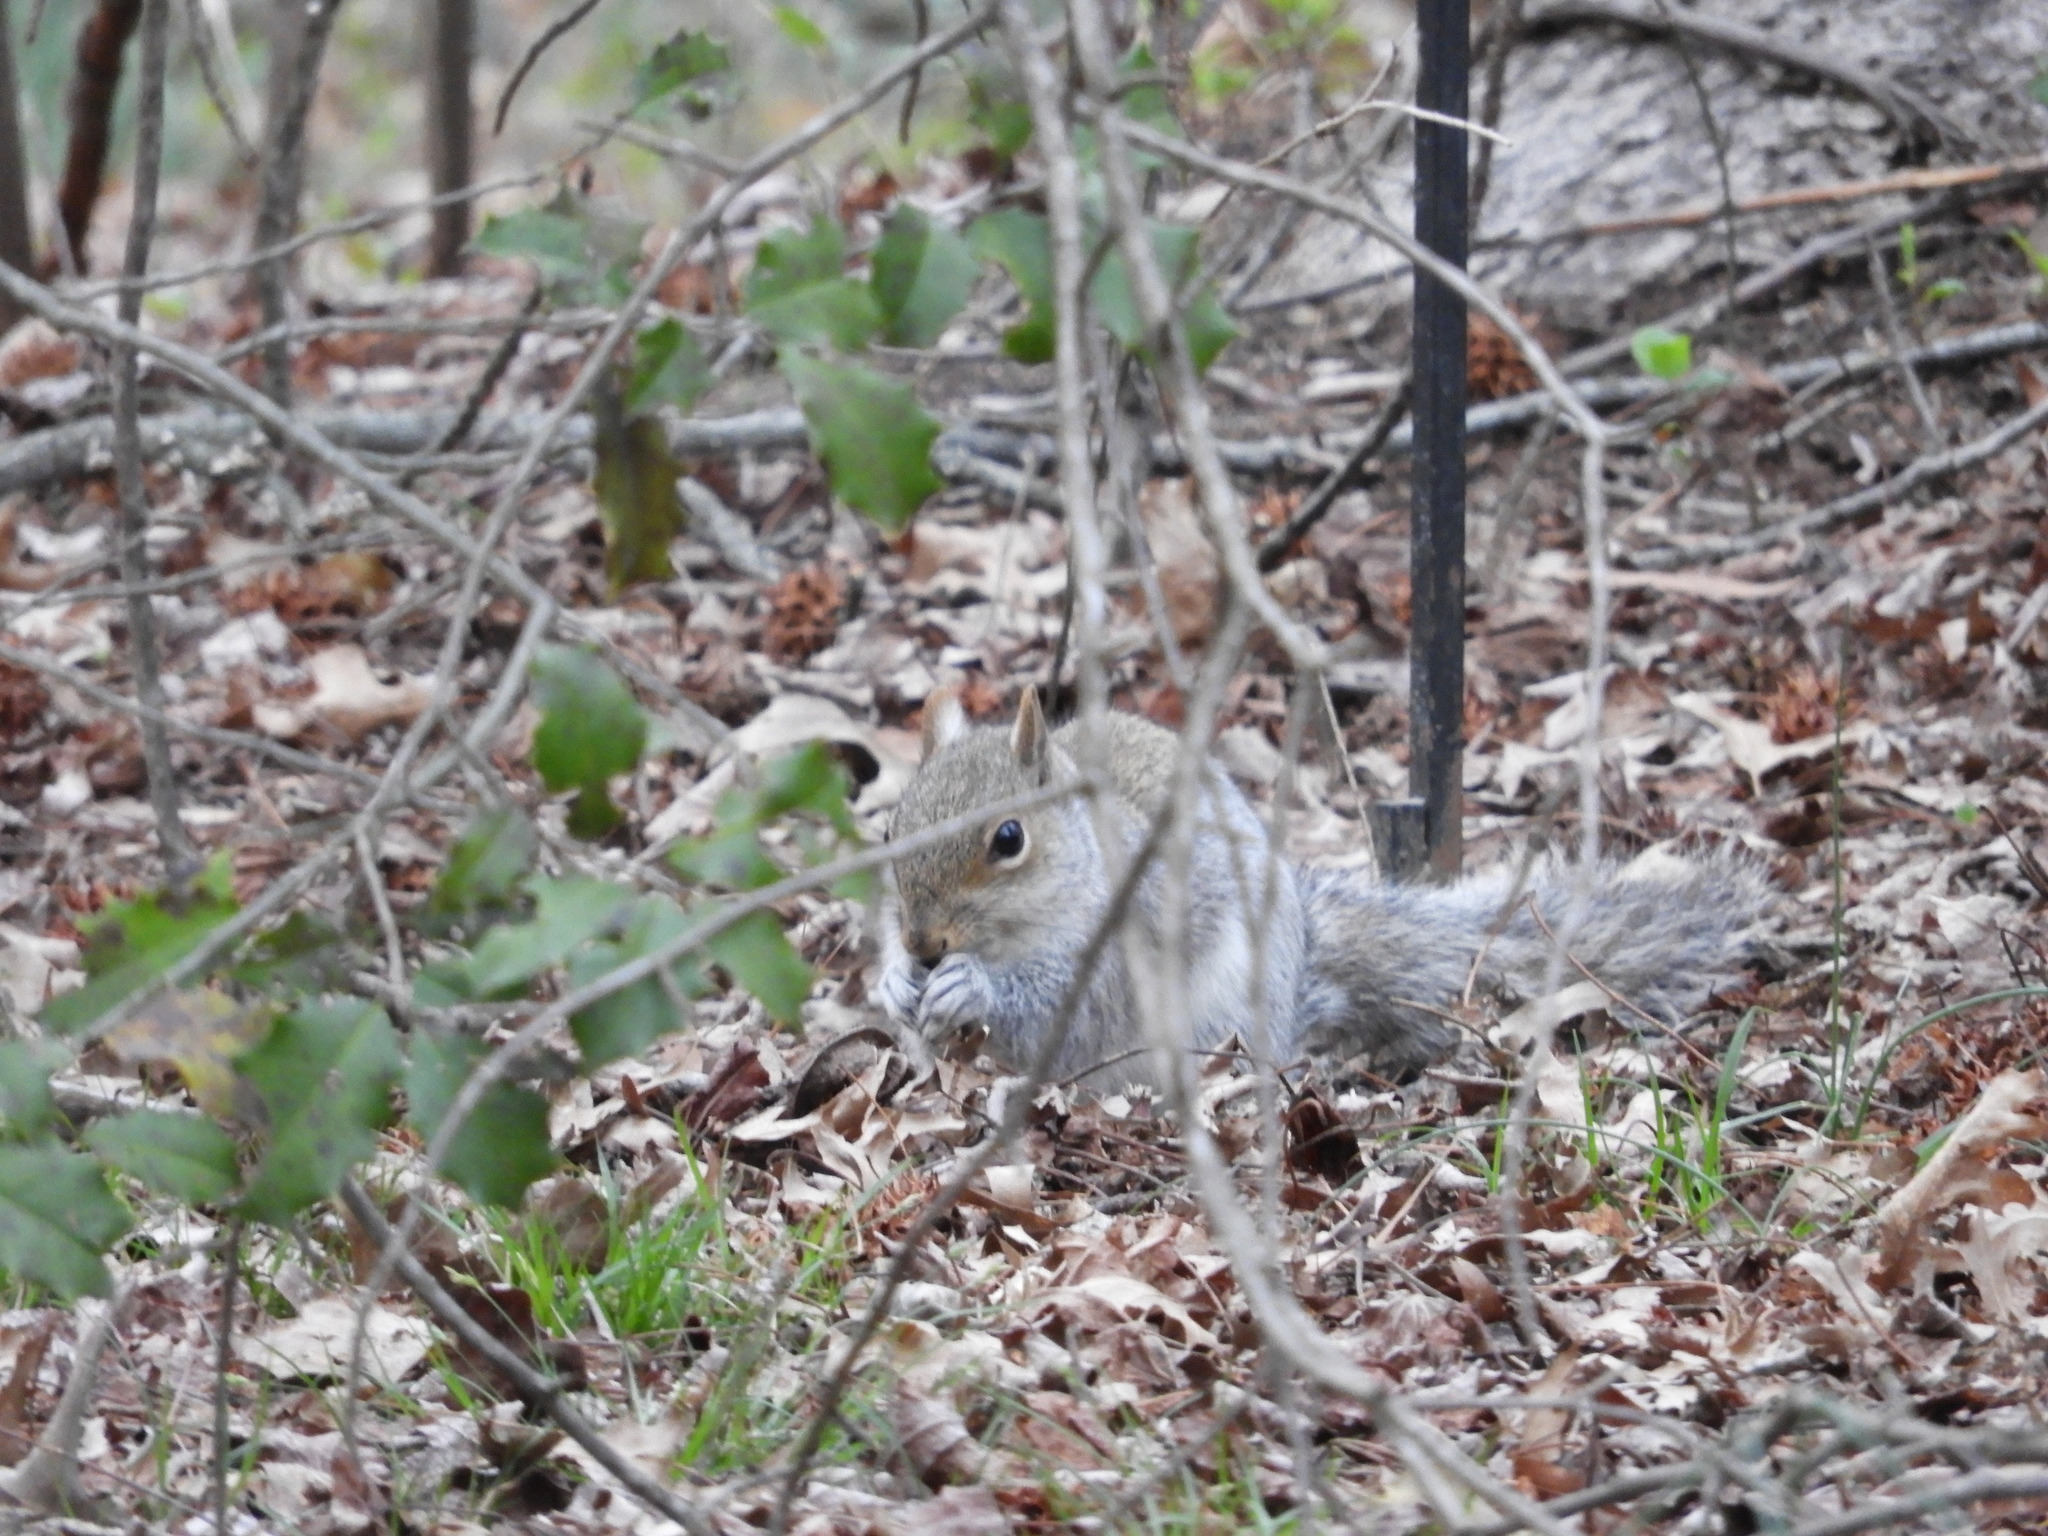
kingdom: Animalia
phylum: Chordata
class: Mammalia
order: Rodentia
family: Sciuridae
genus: Sciurus
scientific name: Sciurus carolinensis
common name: Eastern gray squirrel
